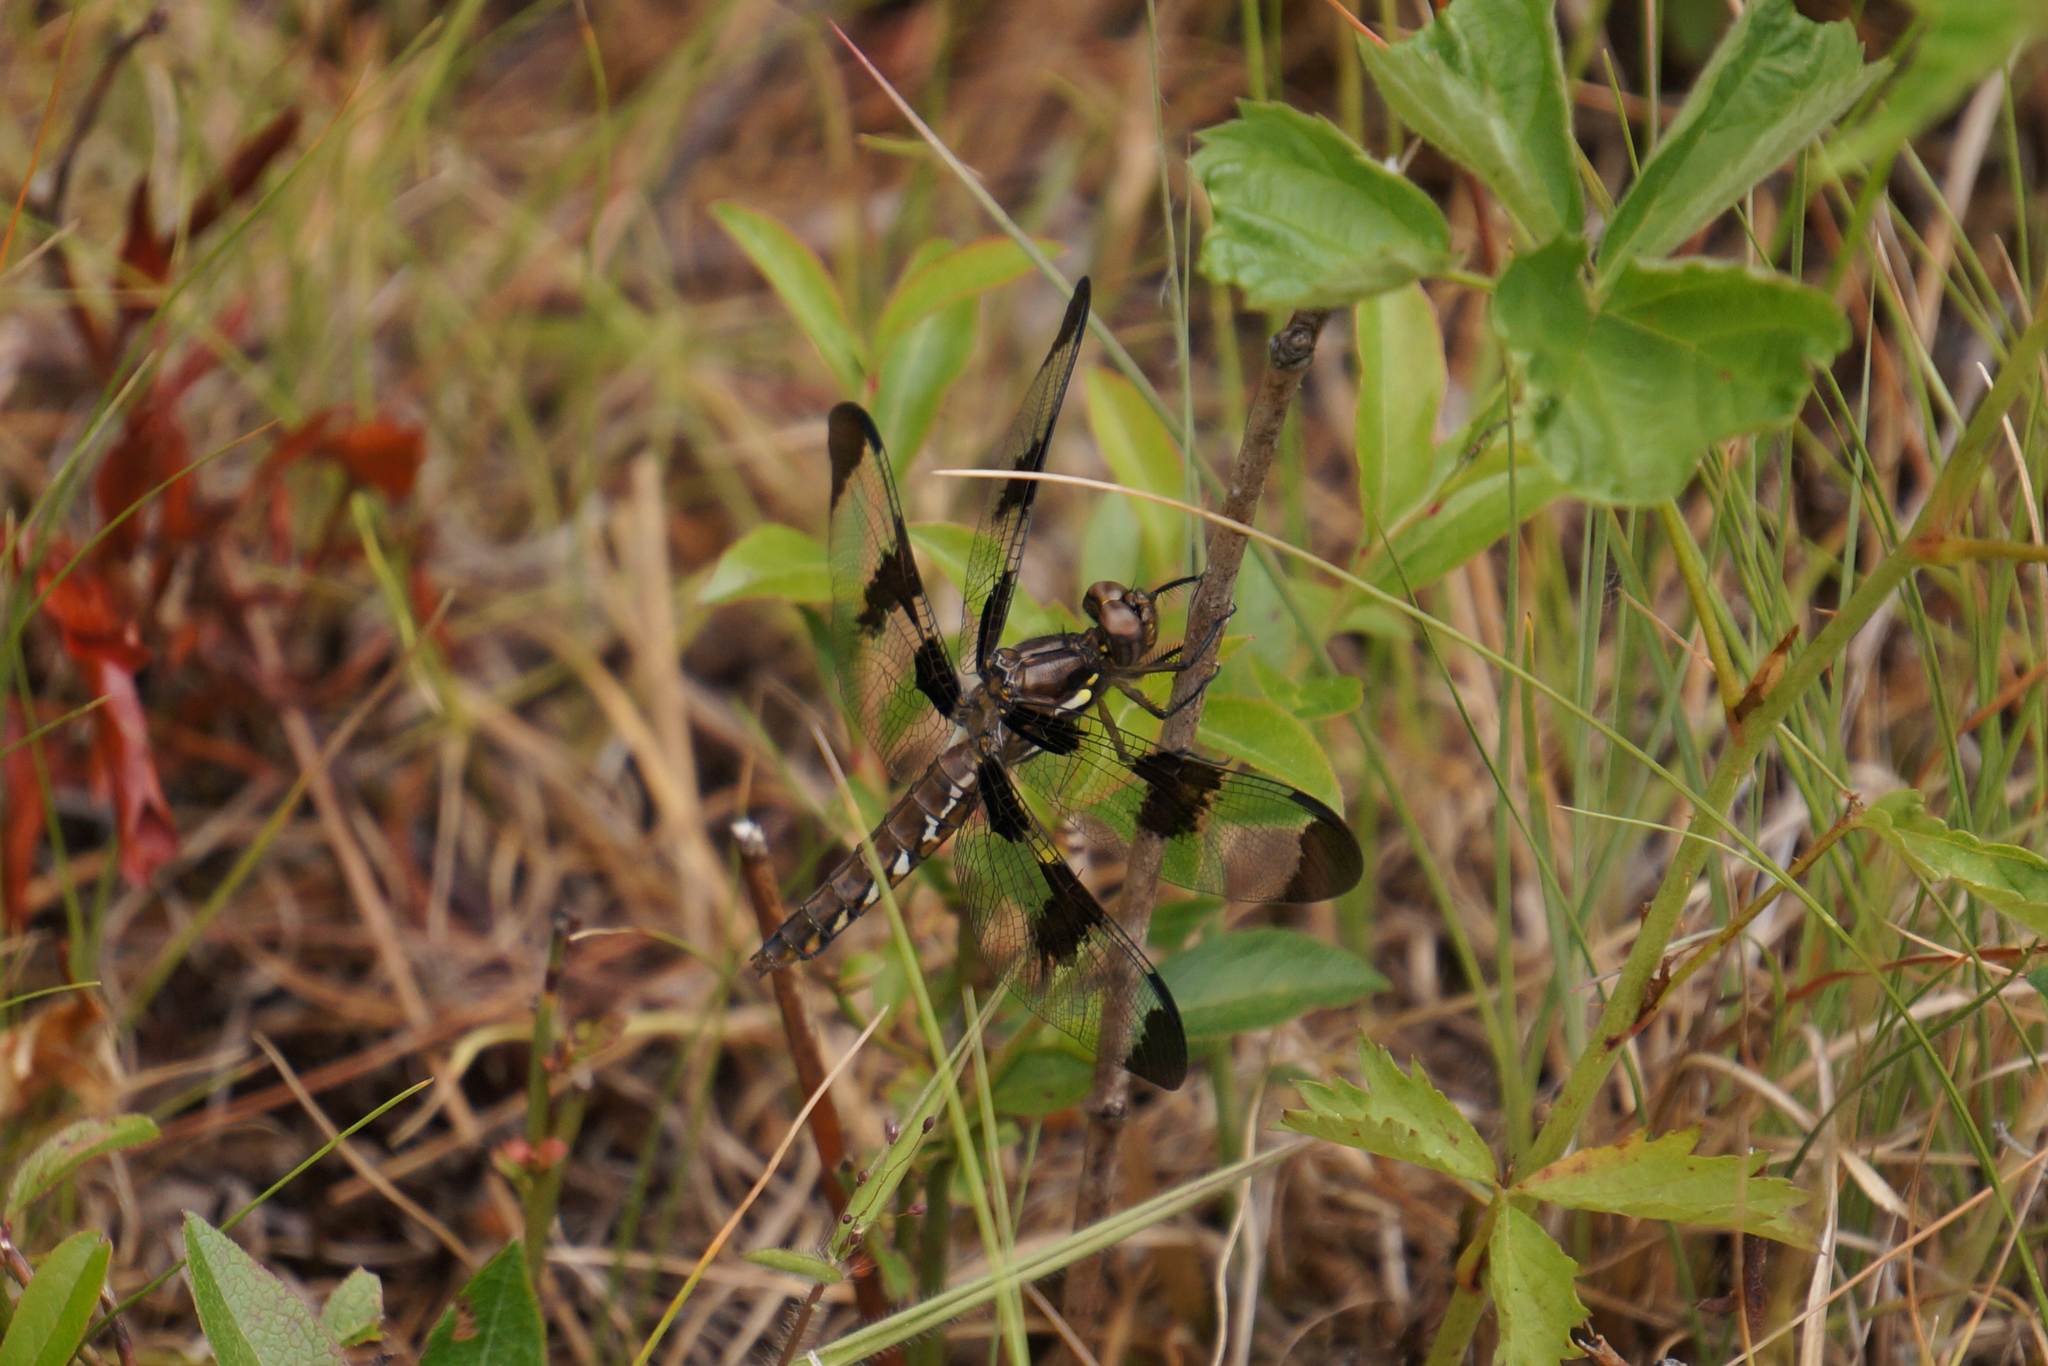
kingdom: Animalia
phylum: Arthropoda
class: Insecta
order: Odonata
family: Libellulidae
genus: Plathemis
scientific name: Plathemis lydia
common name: Common whitetail
